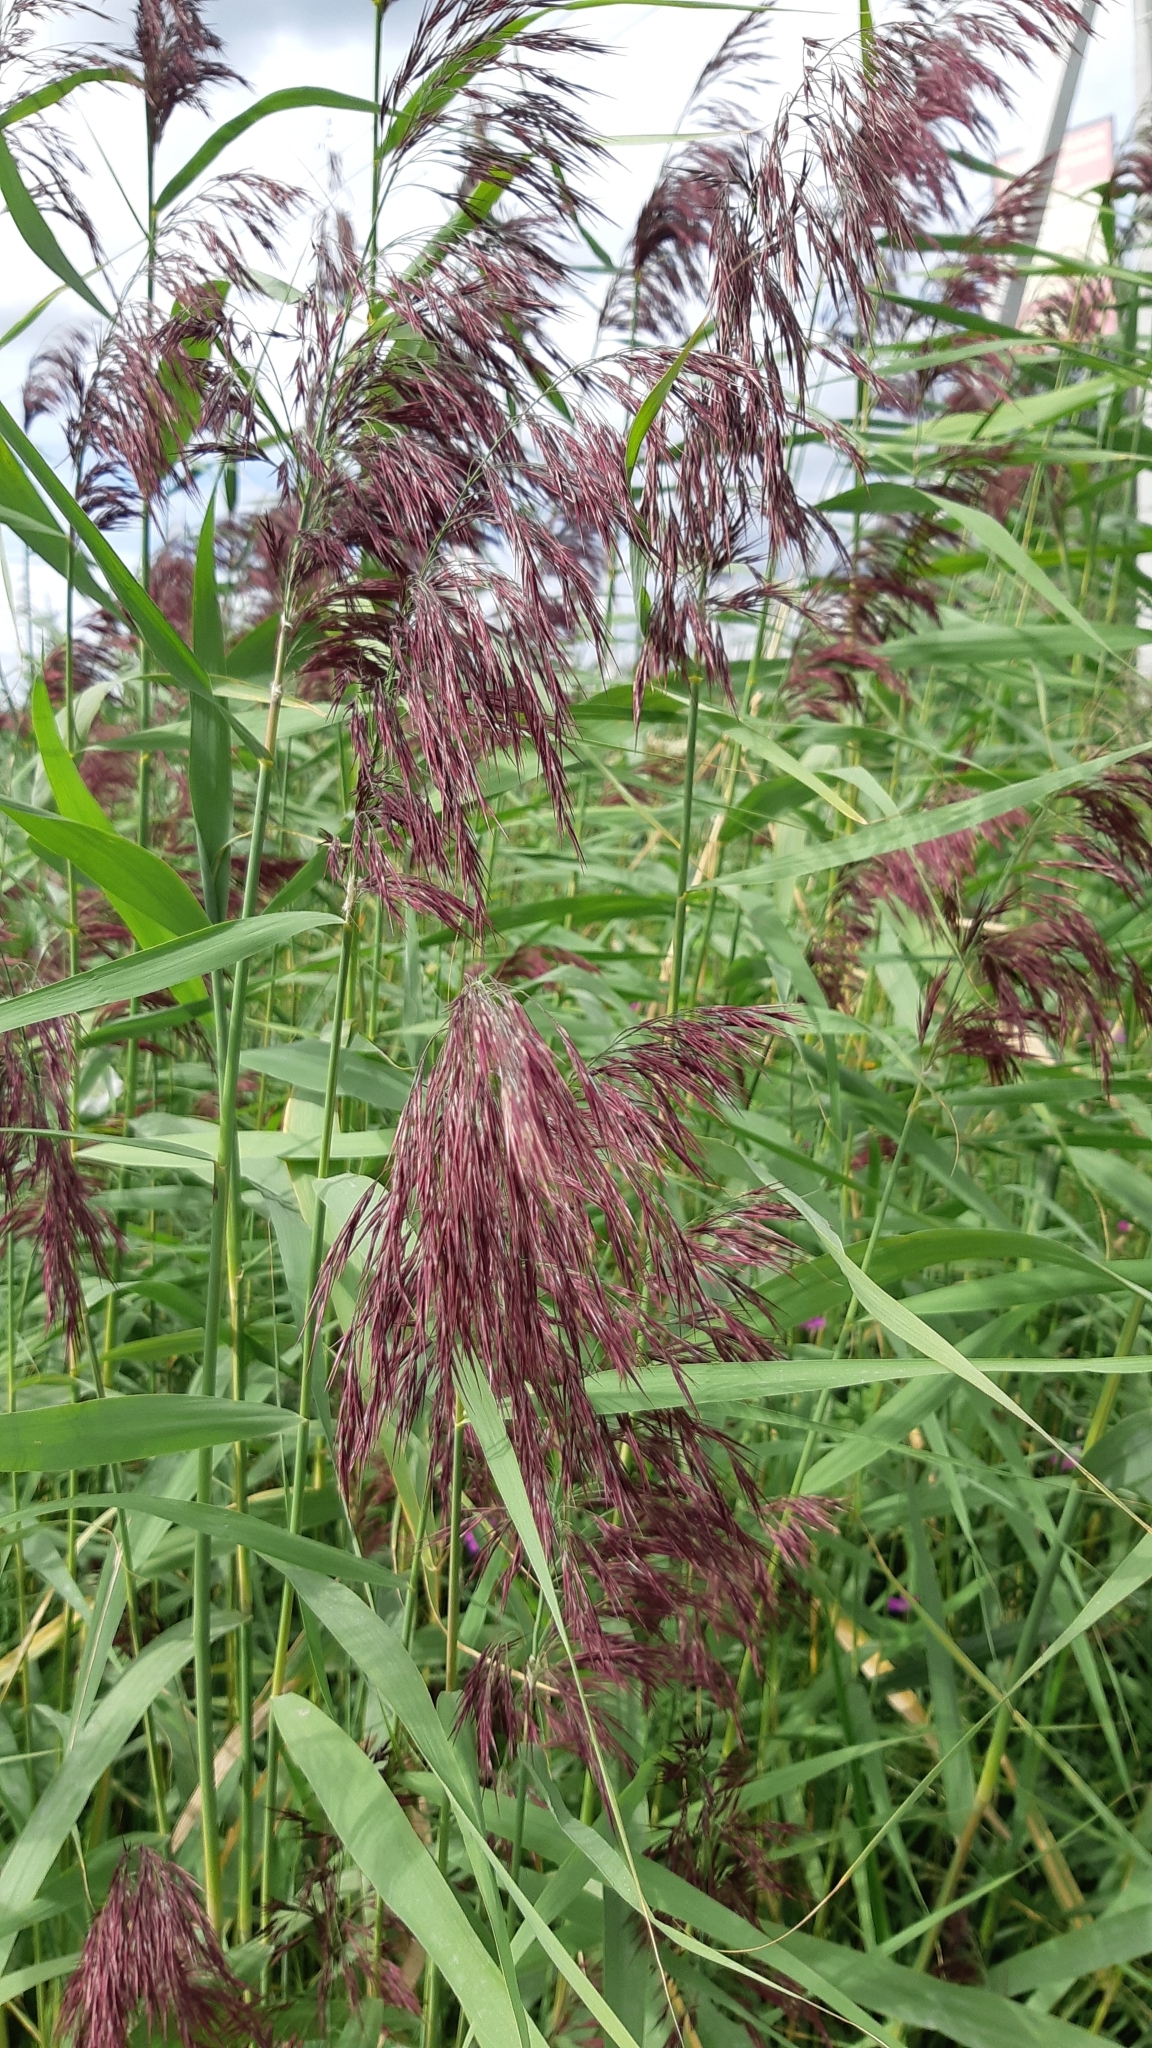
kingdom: Plantae
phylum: Tracheophyta
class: Liliopsida
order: Poales
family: Poaceae
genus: Phragmites
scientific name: Phragmites australis
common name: Common reed
